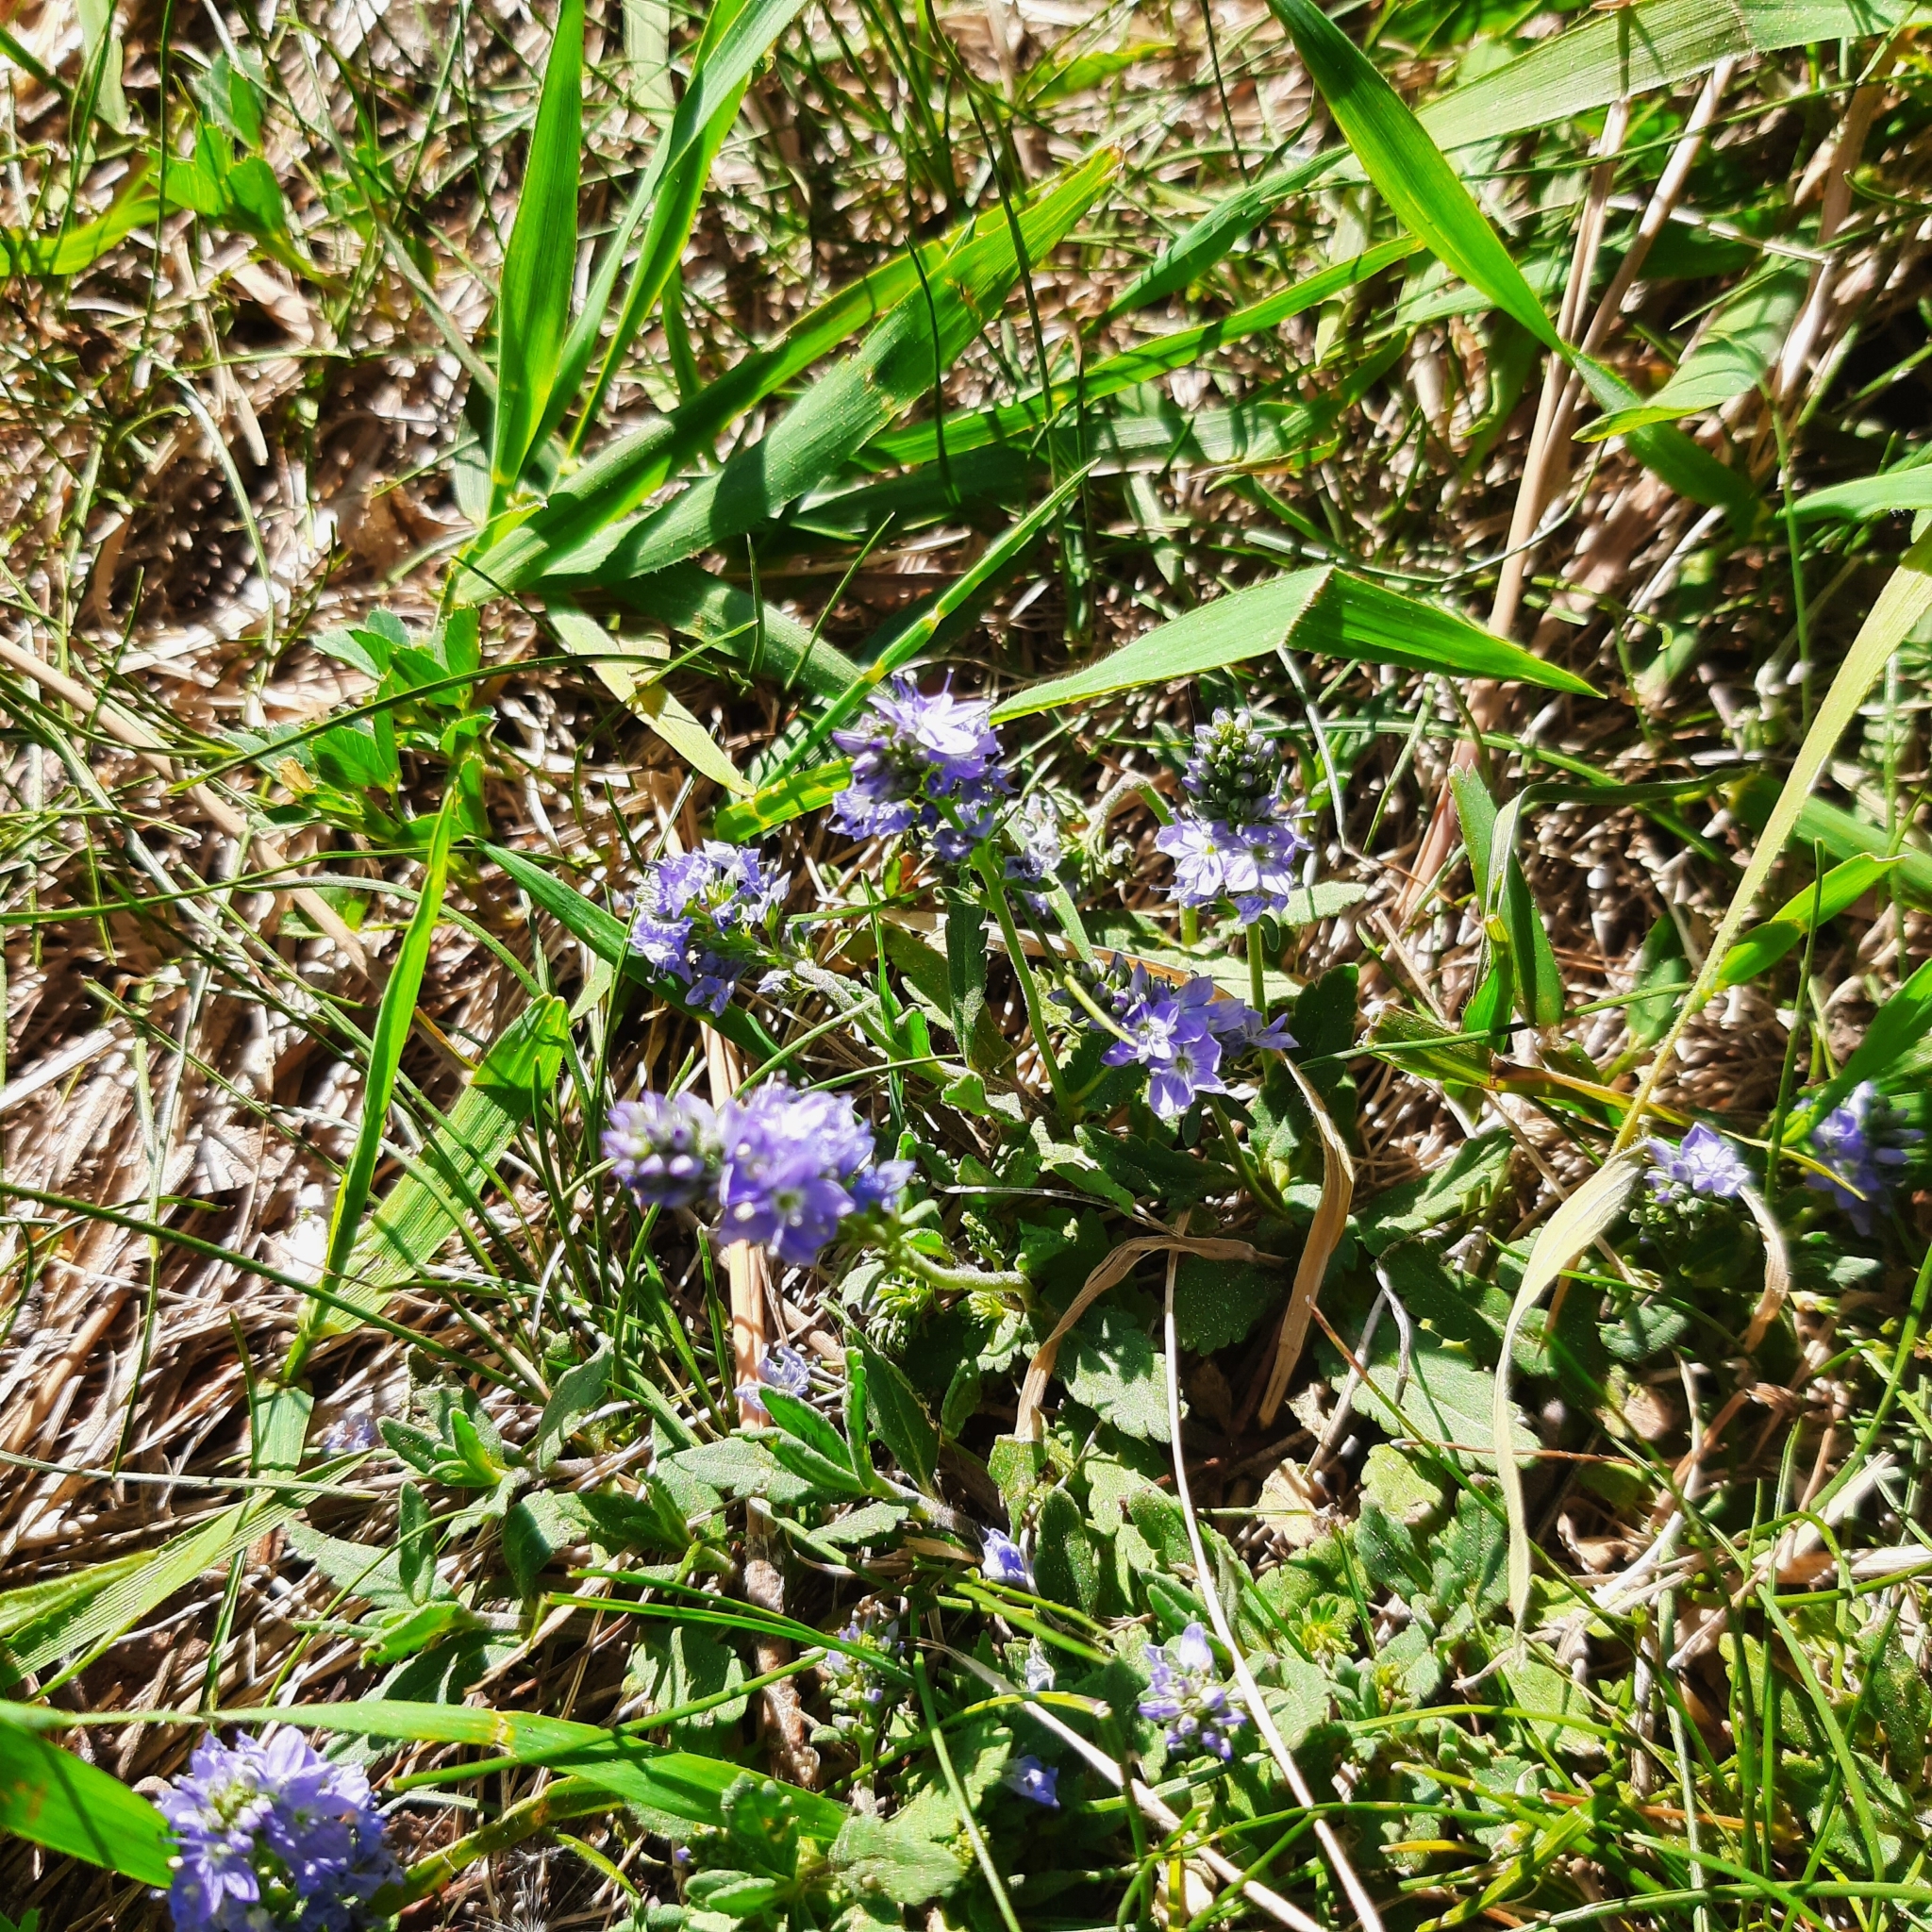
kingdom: Plantae
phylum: Tracheophyta
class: Magnoliopsida
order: Lamiales
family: Plantaginaceae
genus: Veronica
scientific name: Veronica prostrata
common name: Prostrate speedwell
